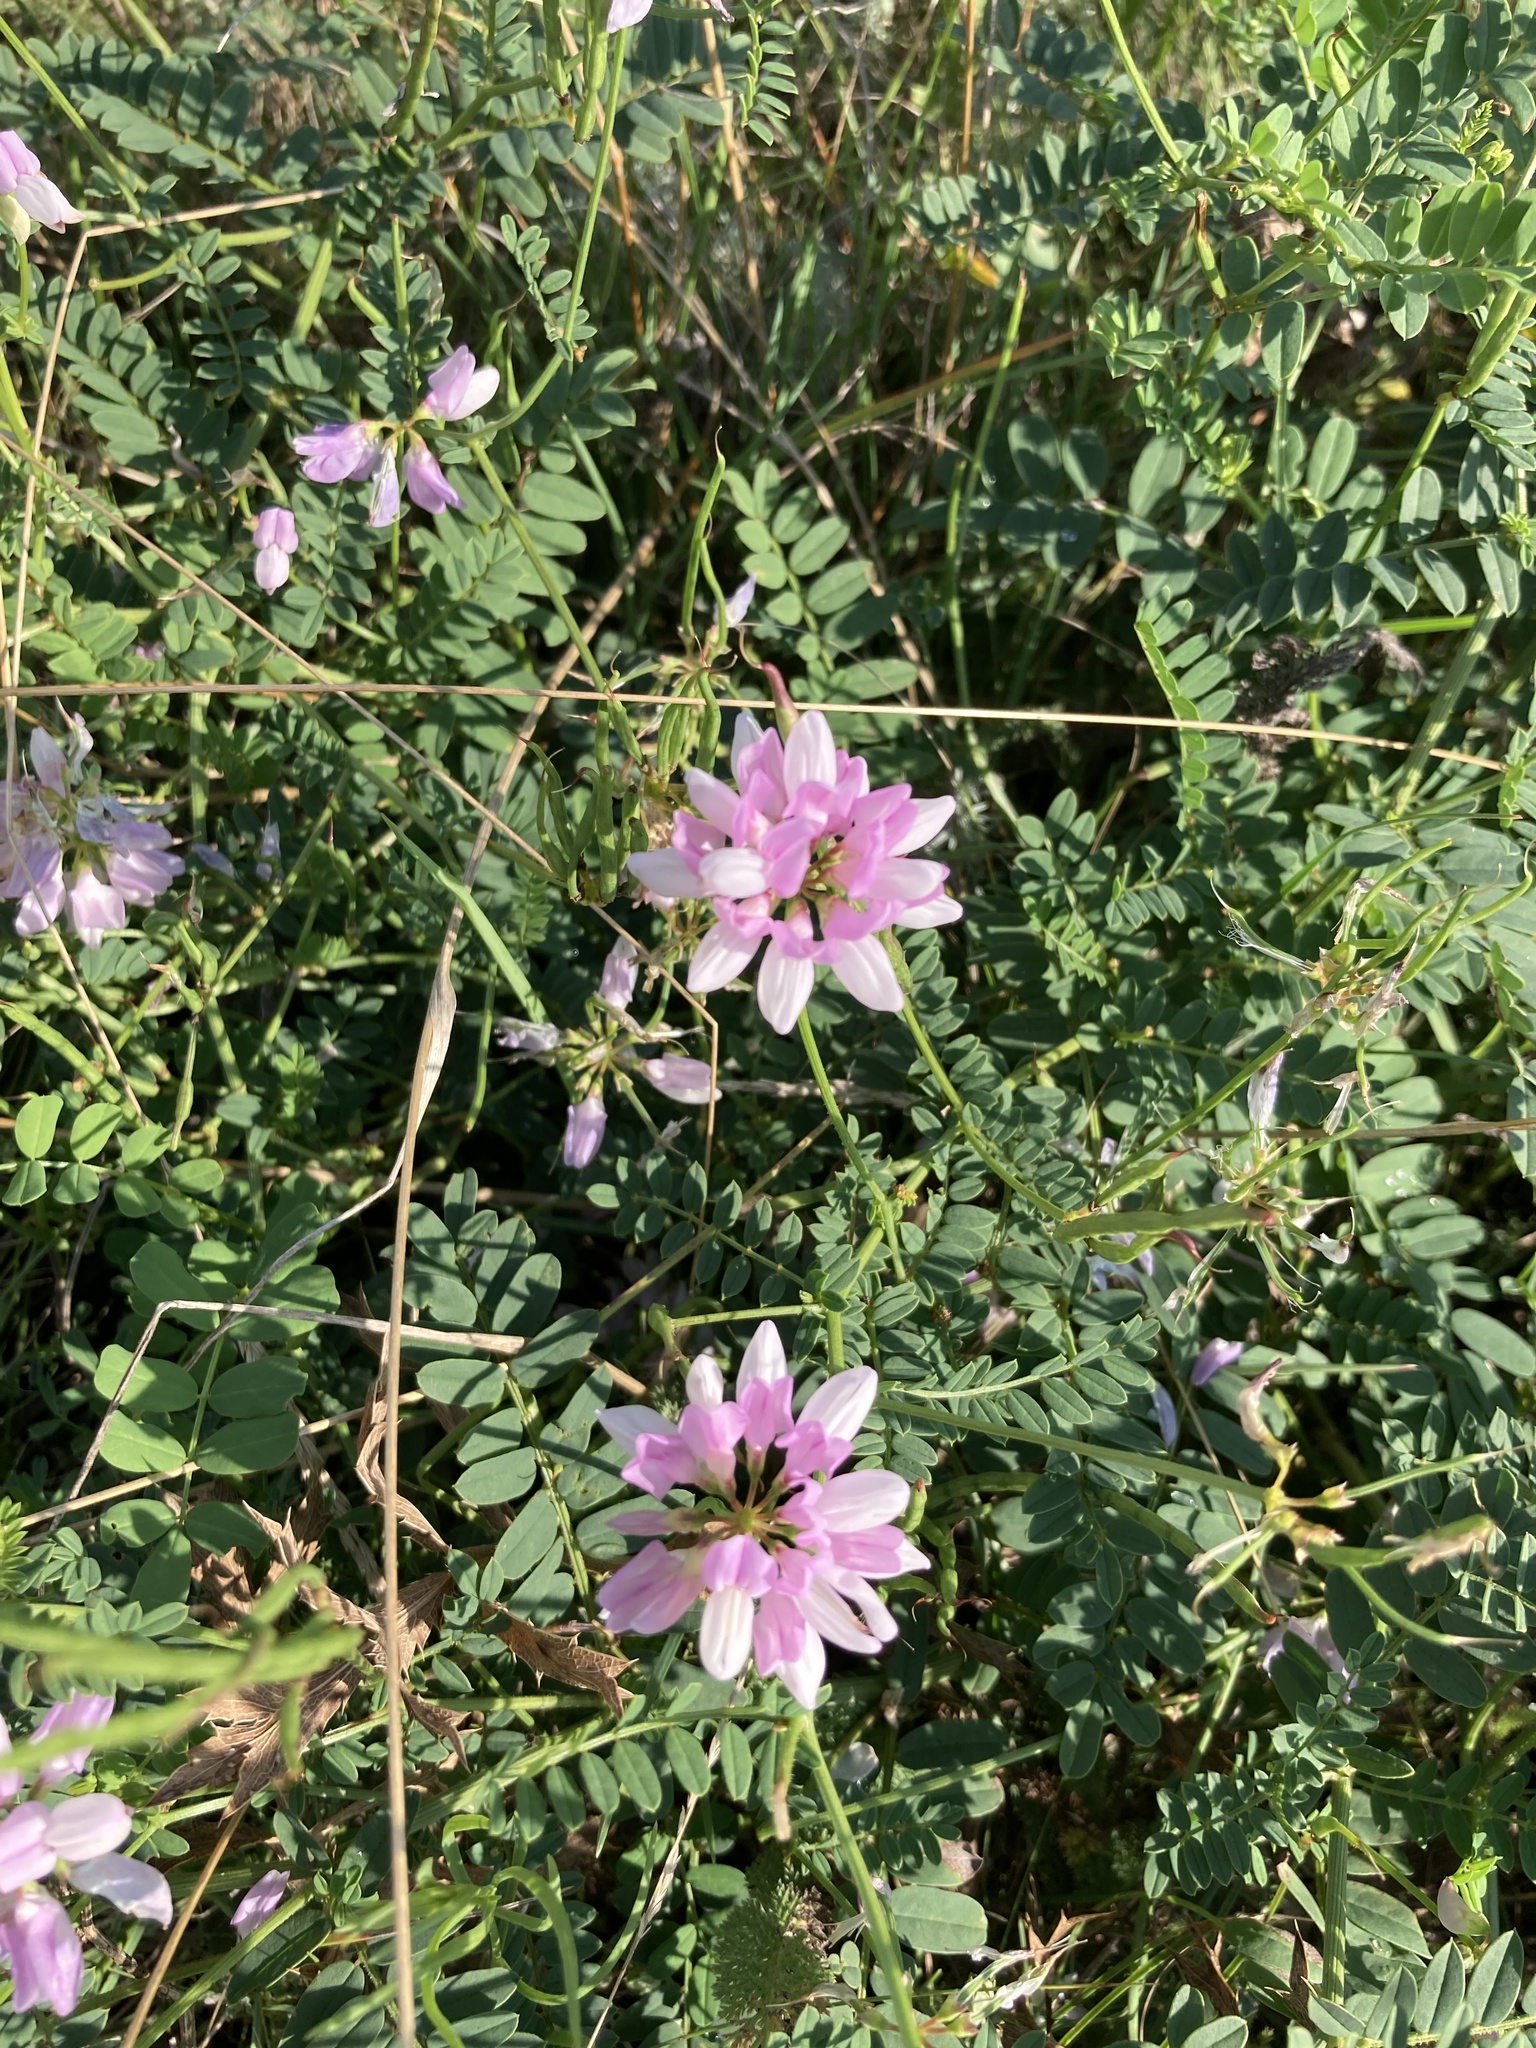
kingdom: Plantae
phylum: Tracheophyta
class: Magnoliopsida
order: Fabales
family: Fabaceae
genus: Coronilla
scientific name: Coronilla varia
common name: Crownvetch
